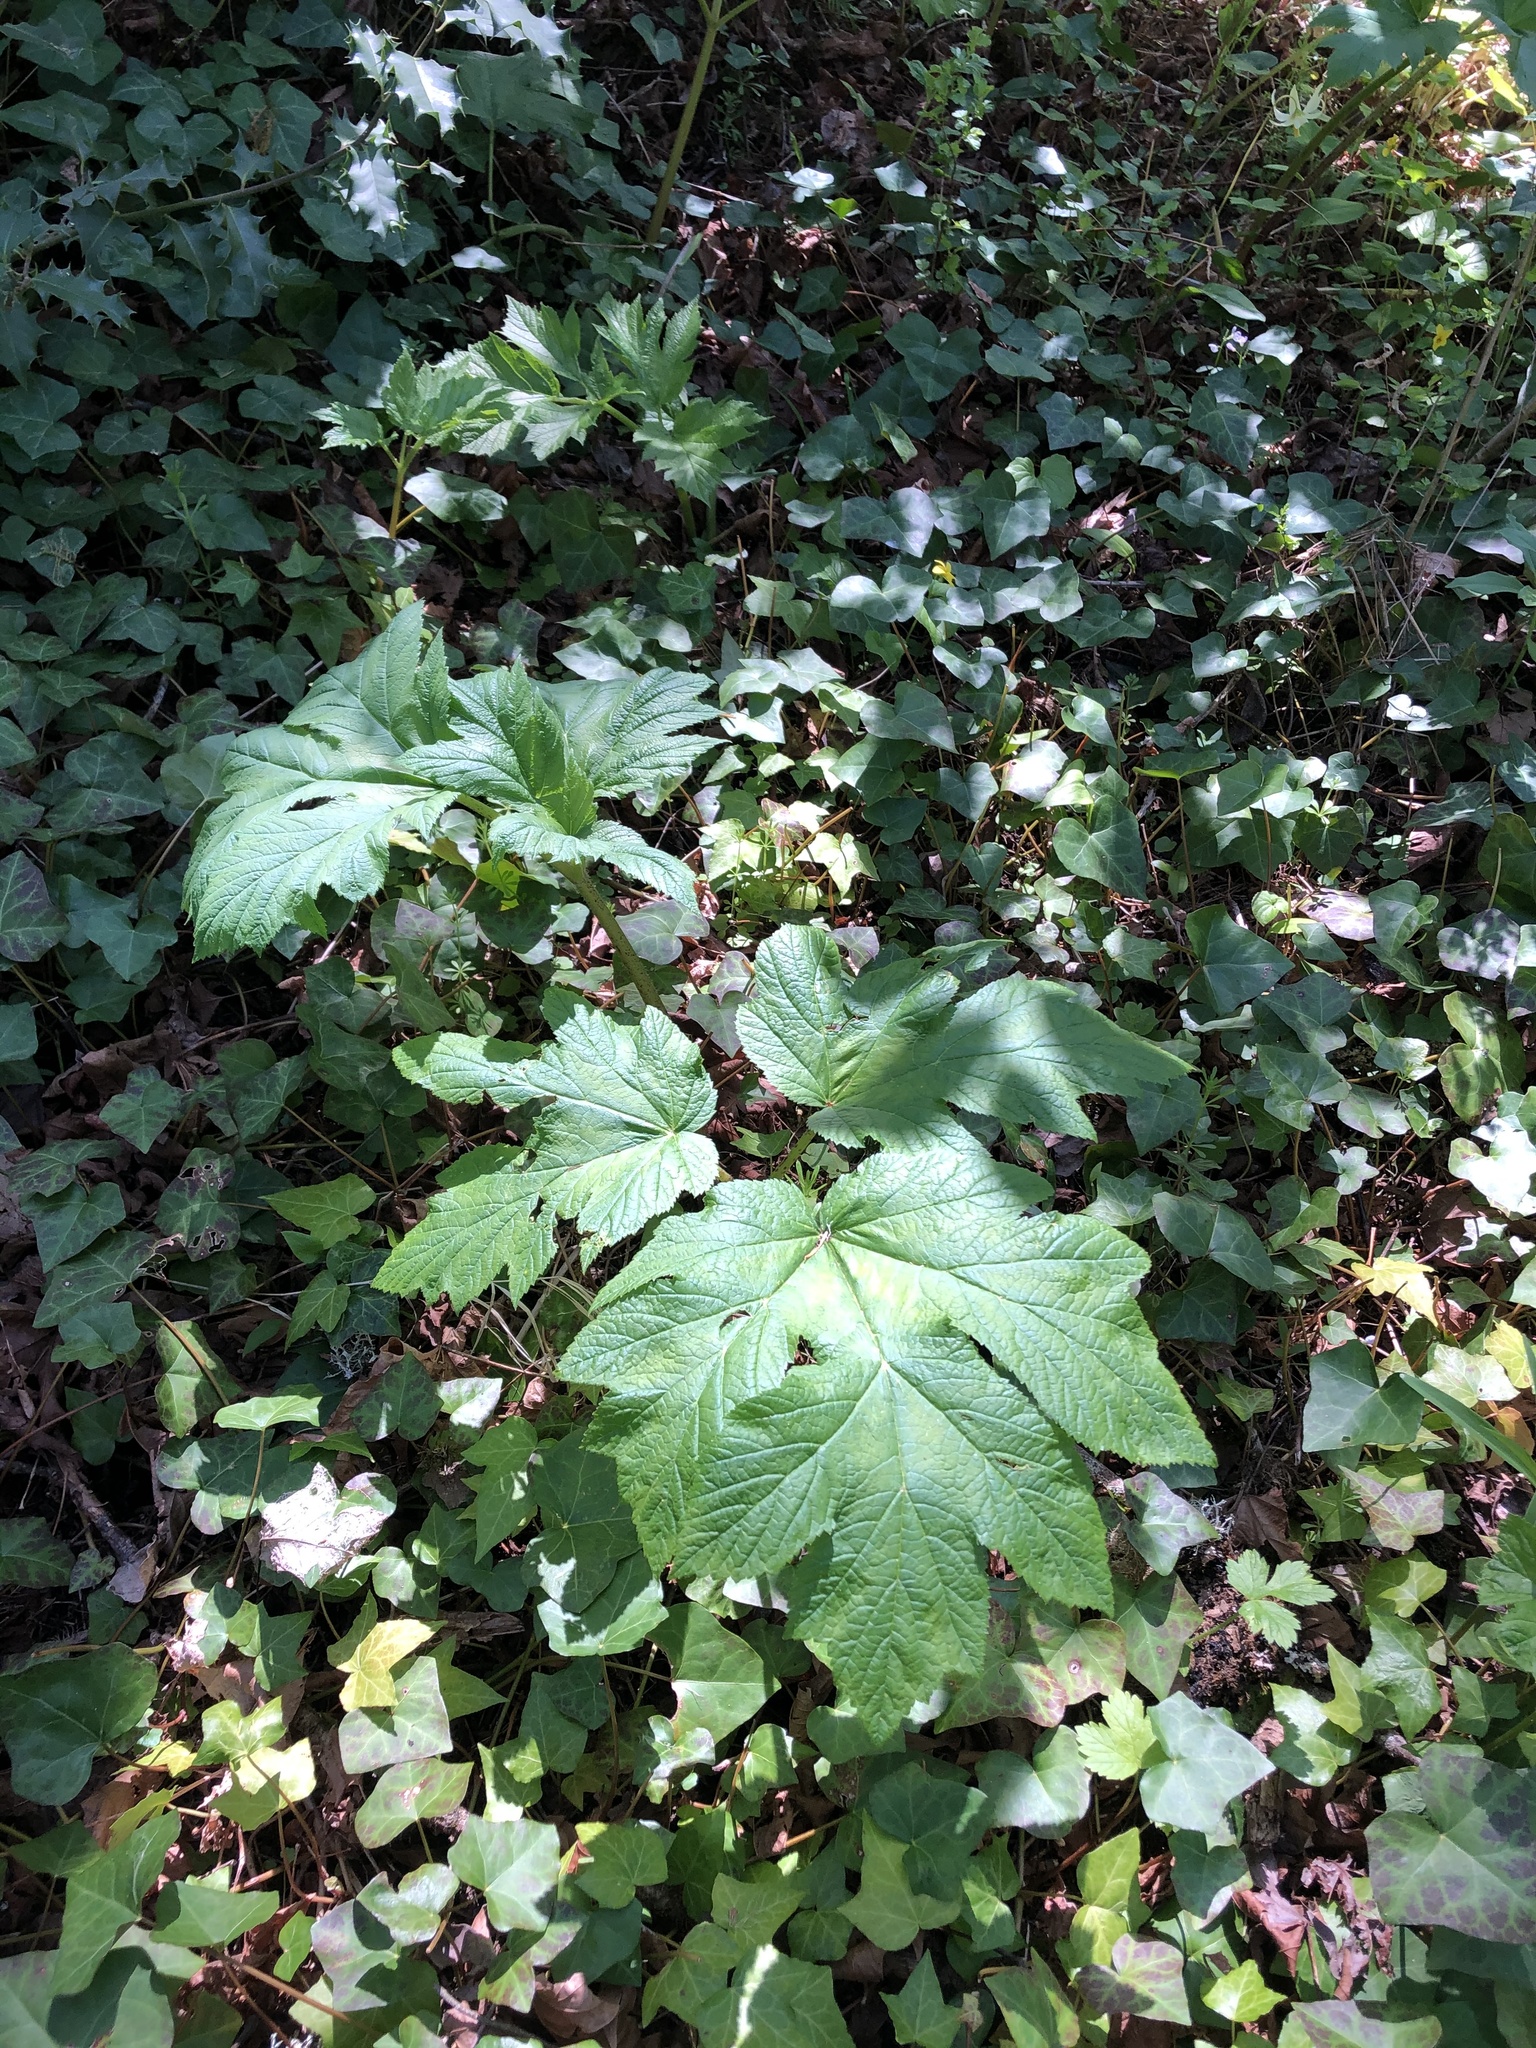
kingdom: Plantae
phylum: Tracheophyta
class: Magnoliopsida
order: Apiales
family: Apiaceae
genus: Heracleum
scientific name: Heracleum maximum
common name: American cow parsnip
